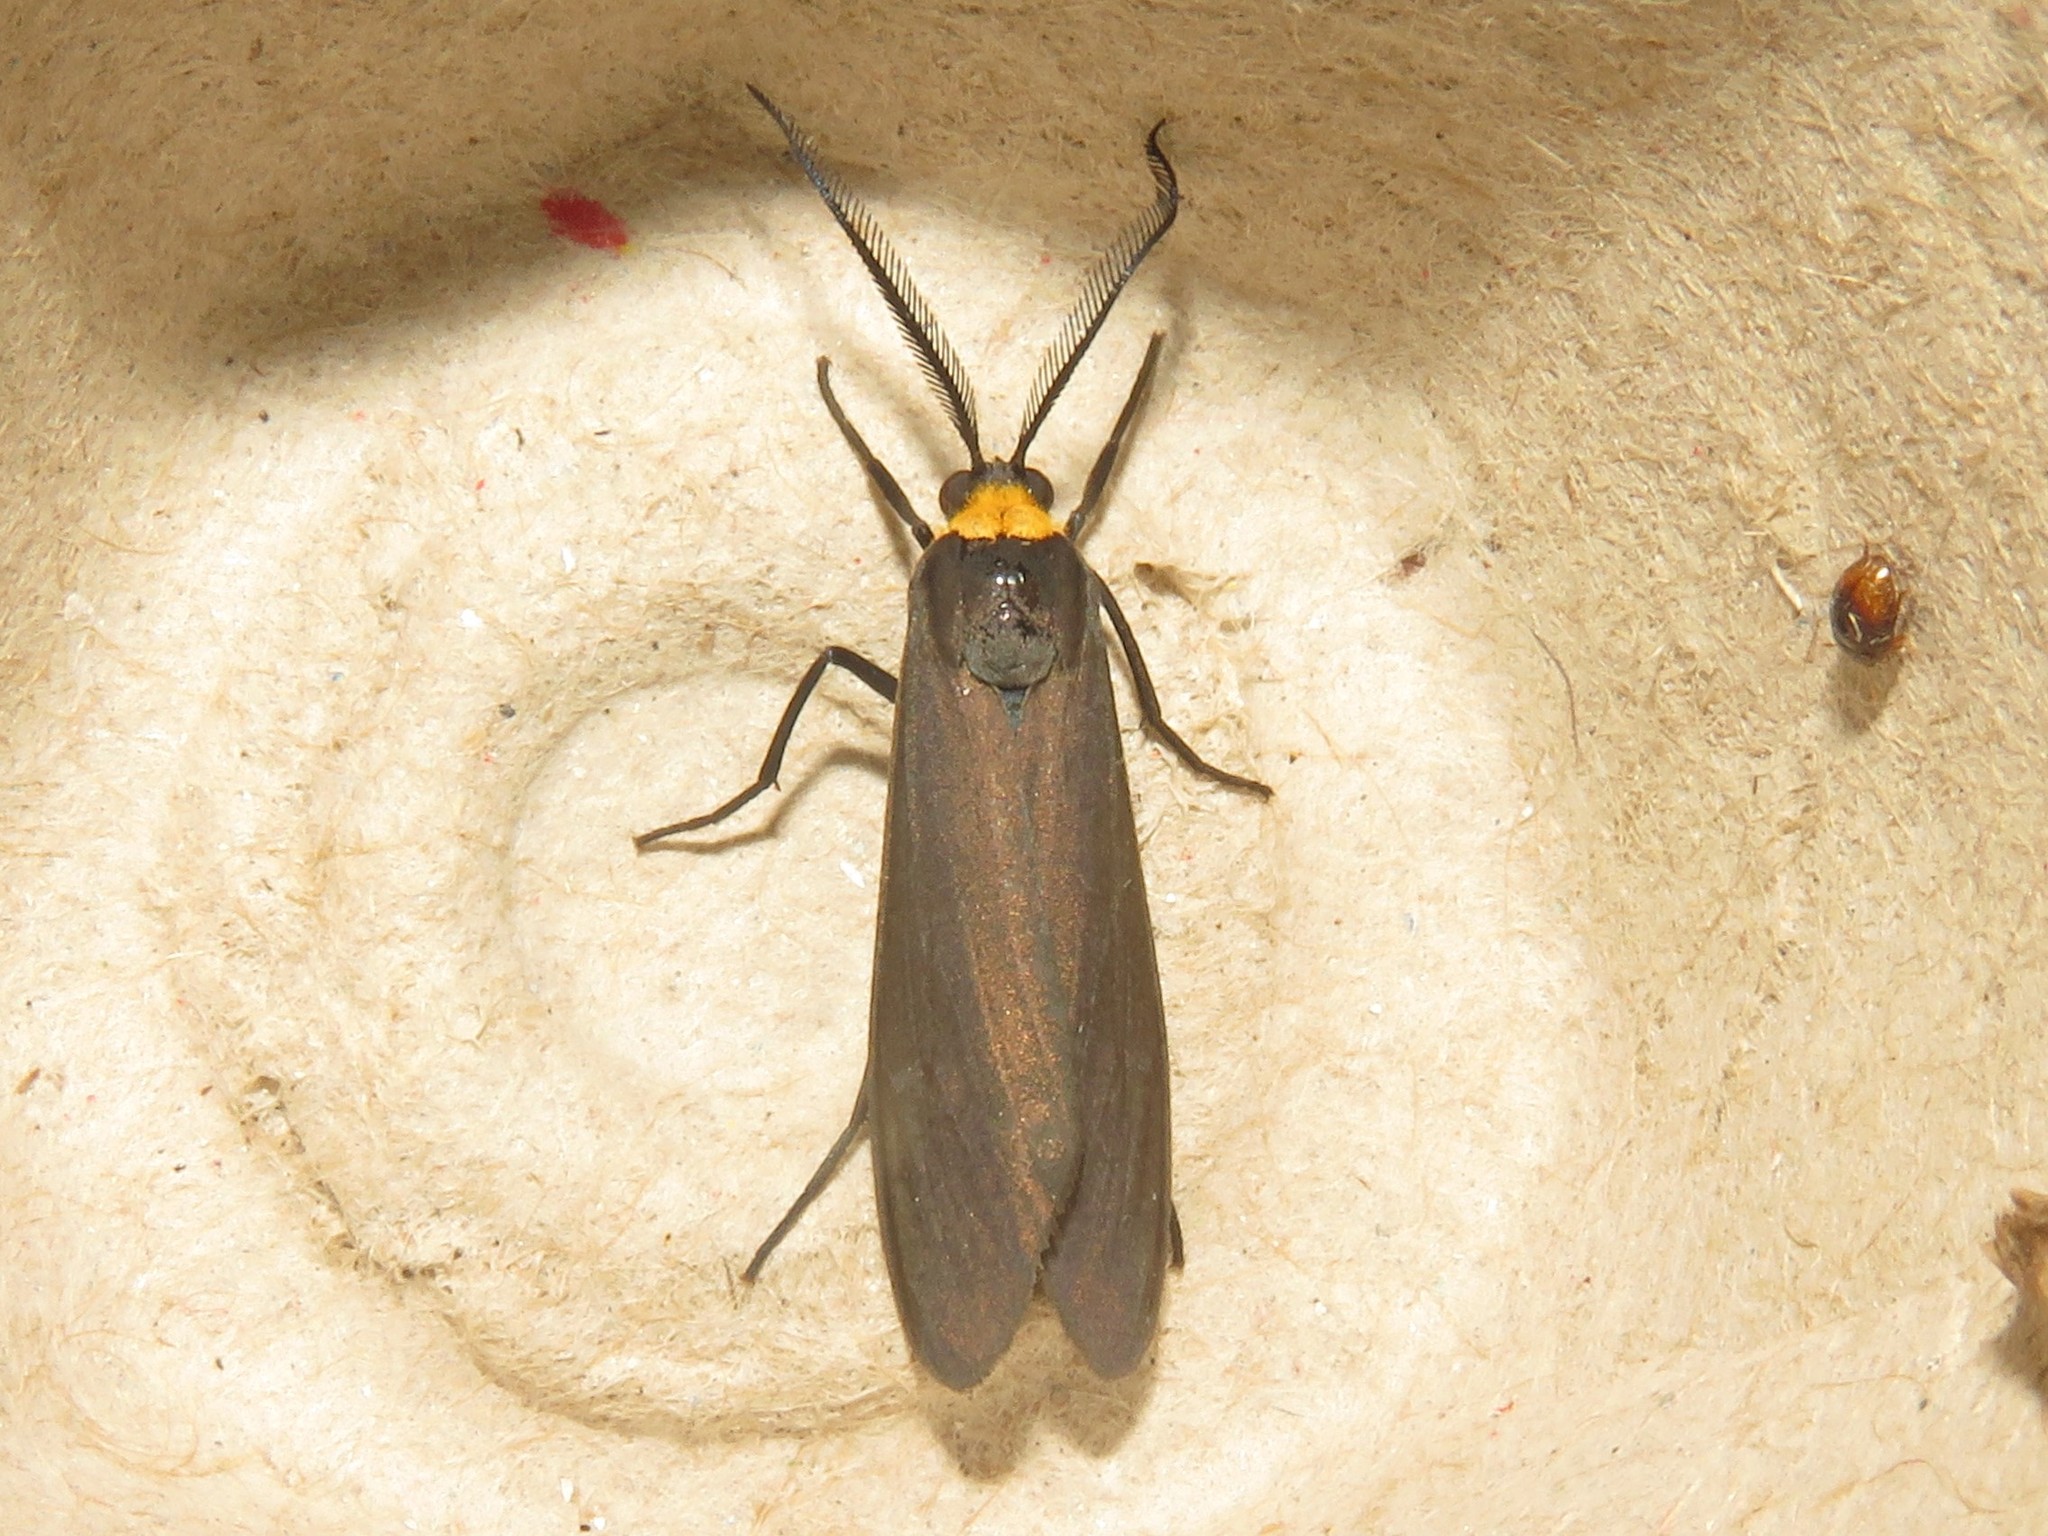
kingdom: Animalia
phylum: Arthropoda
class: Insecta
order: Lepidoptera
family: Erebidae
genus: Cisseps
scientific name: Cisseps fulvicollis
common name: Yellow-collared scape moth
